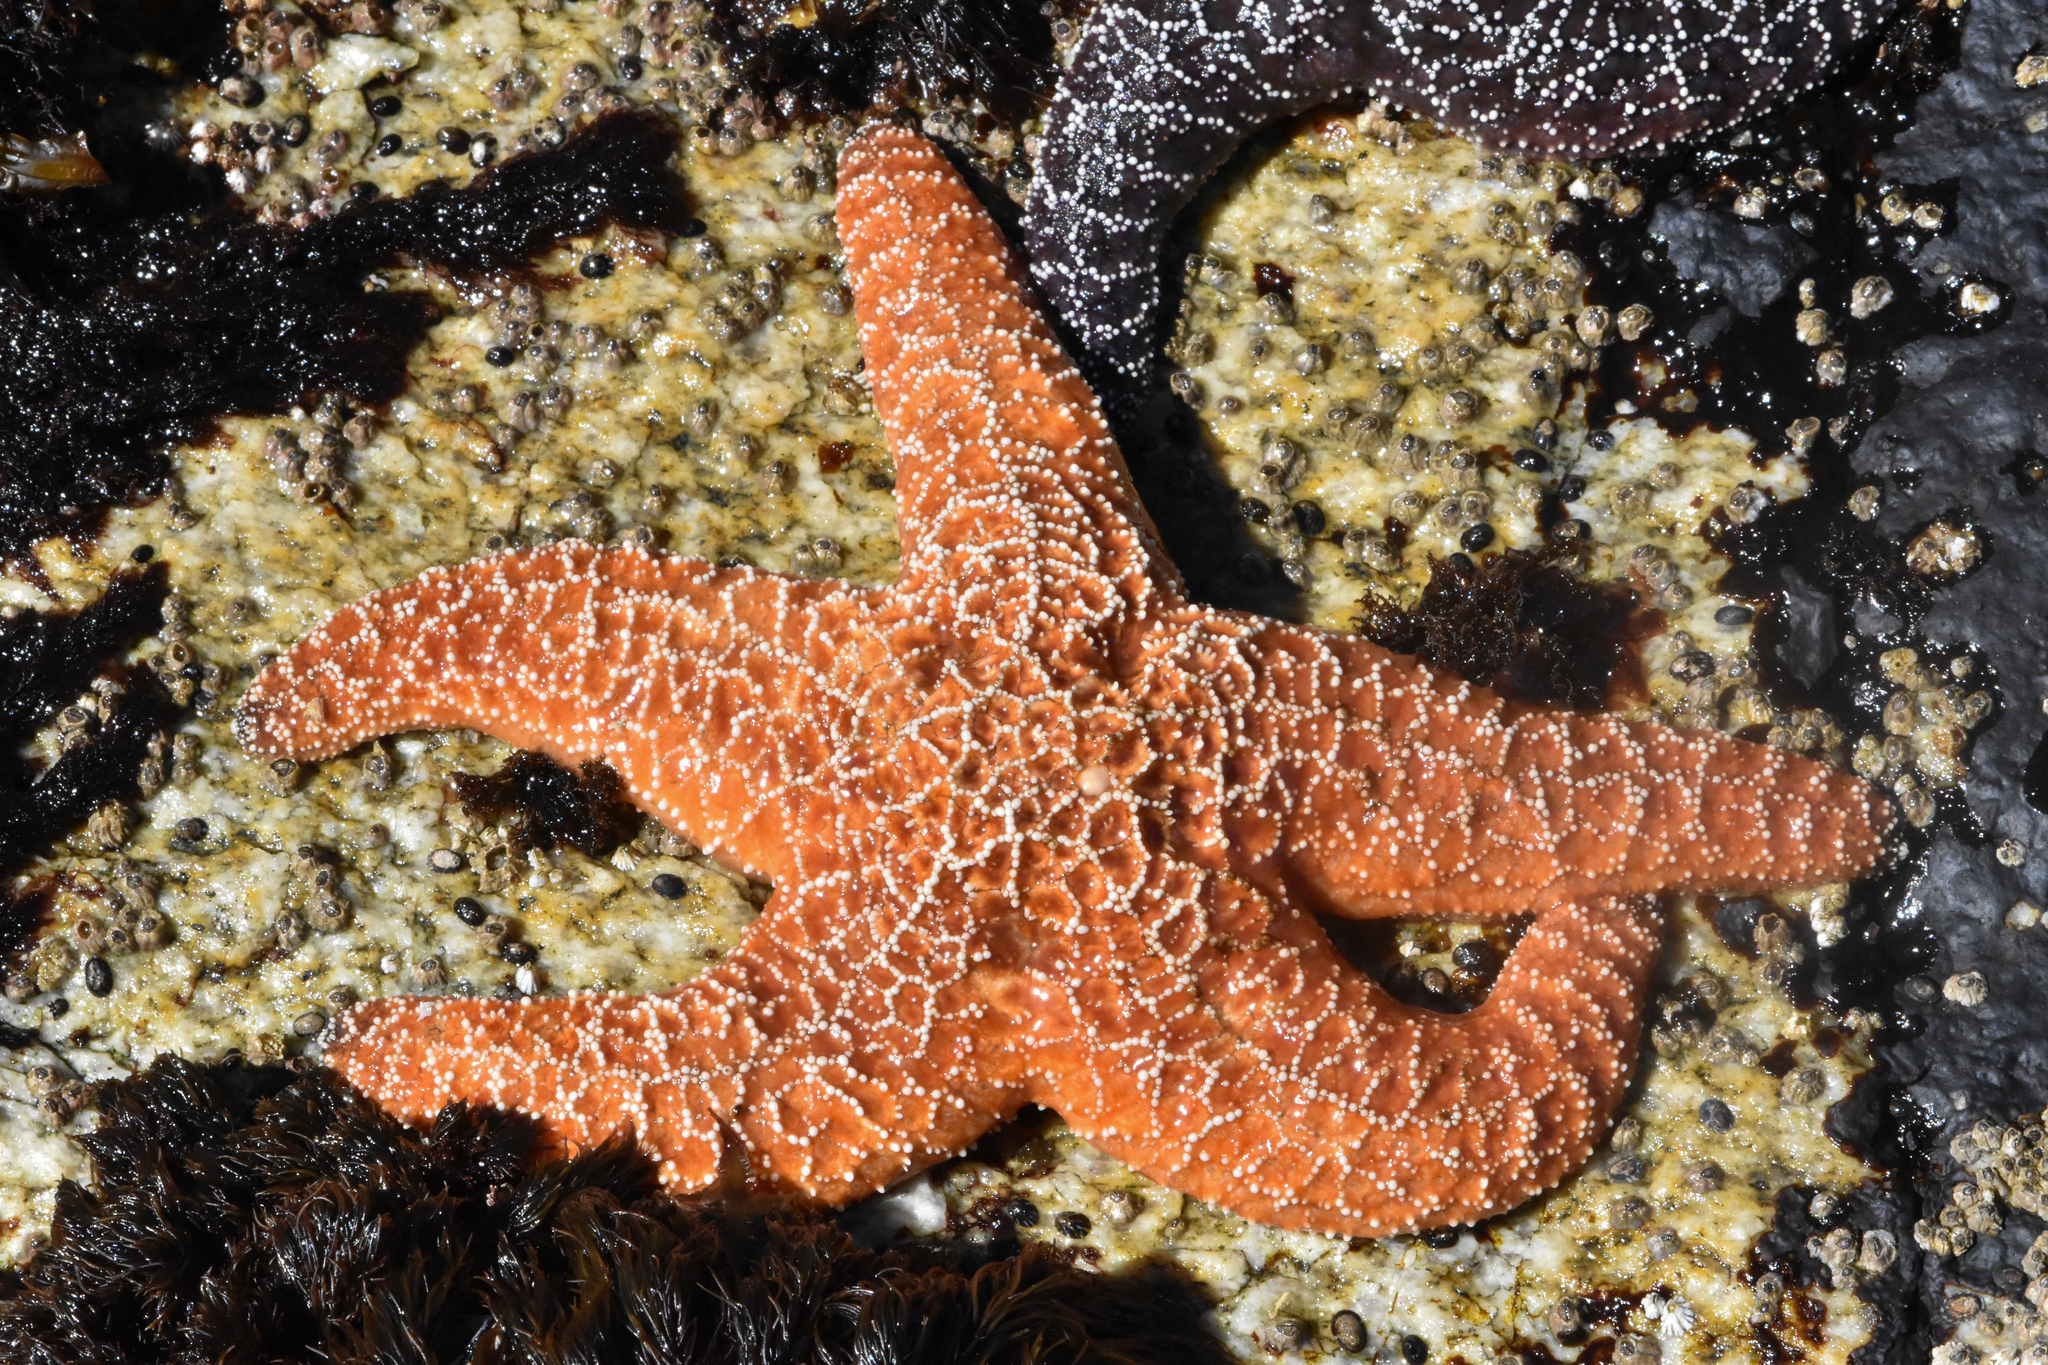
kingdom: Animalia
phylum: Echinodermata
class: Asteroidea
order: Forcipulatida
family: Asteriidae
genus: Pisaster
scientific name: Pisaster ochraceus
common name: Ochre stars
